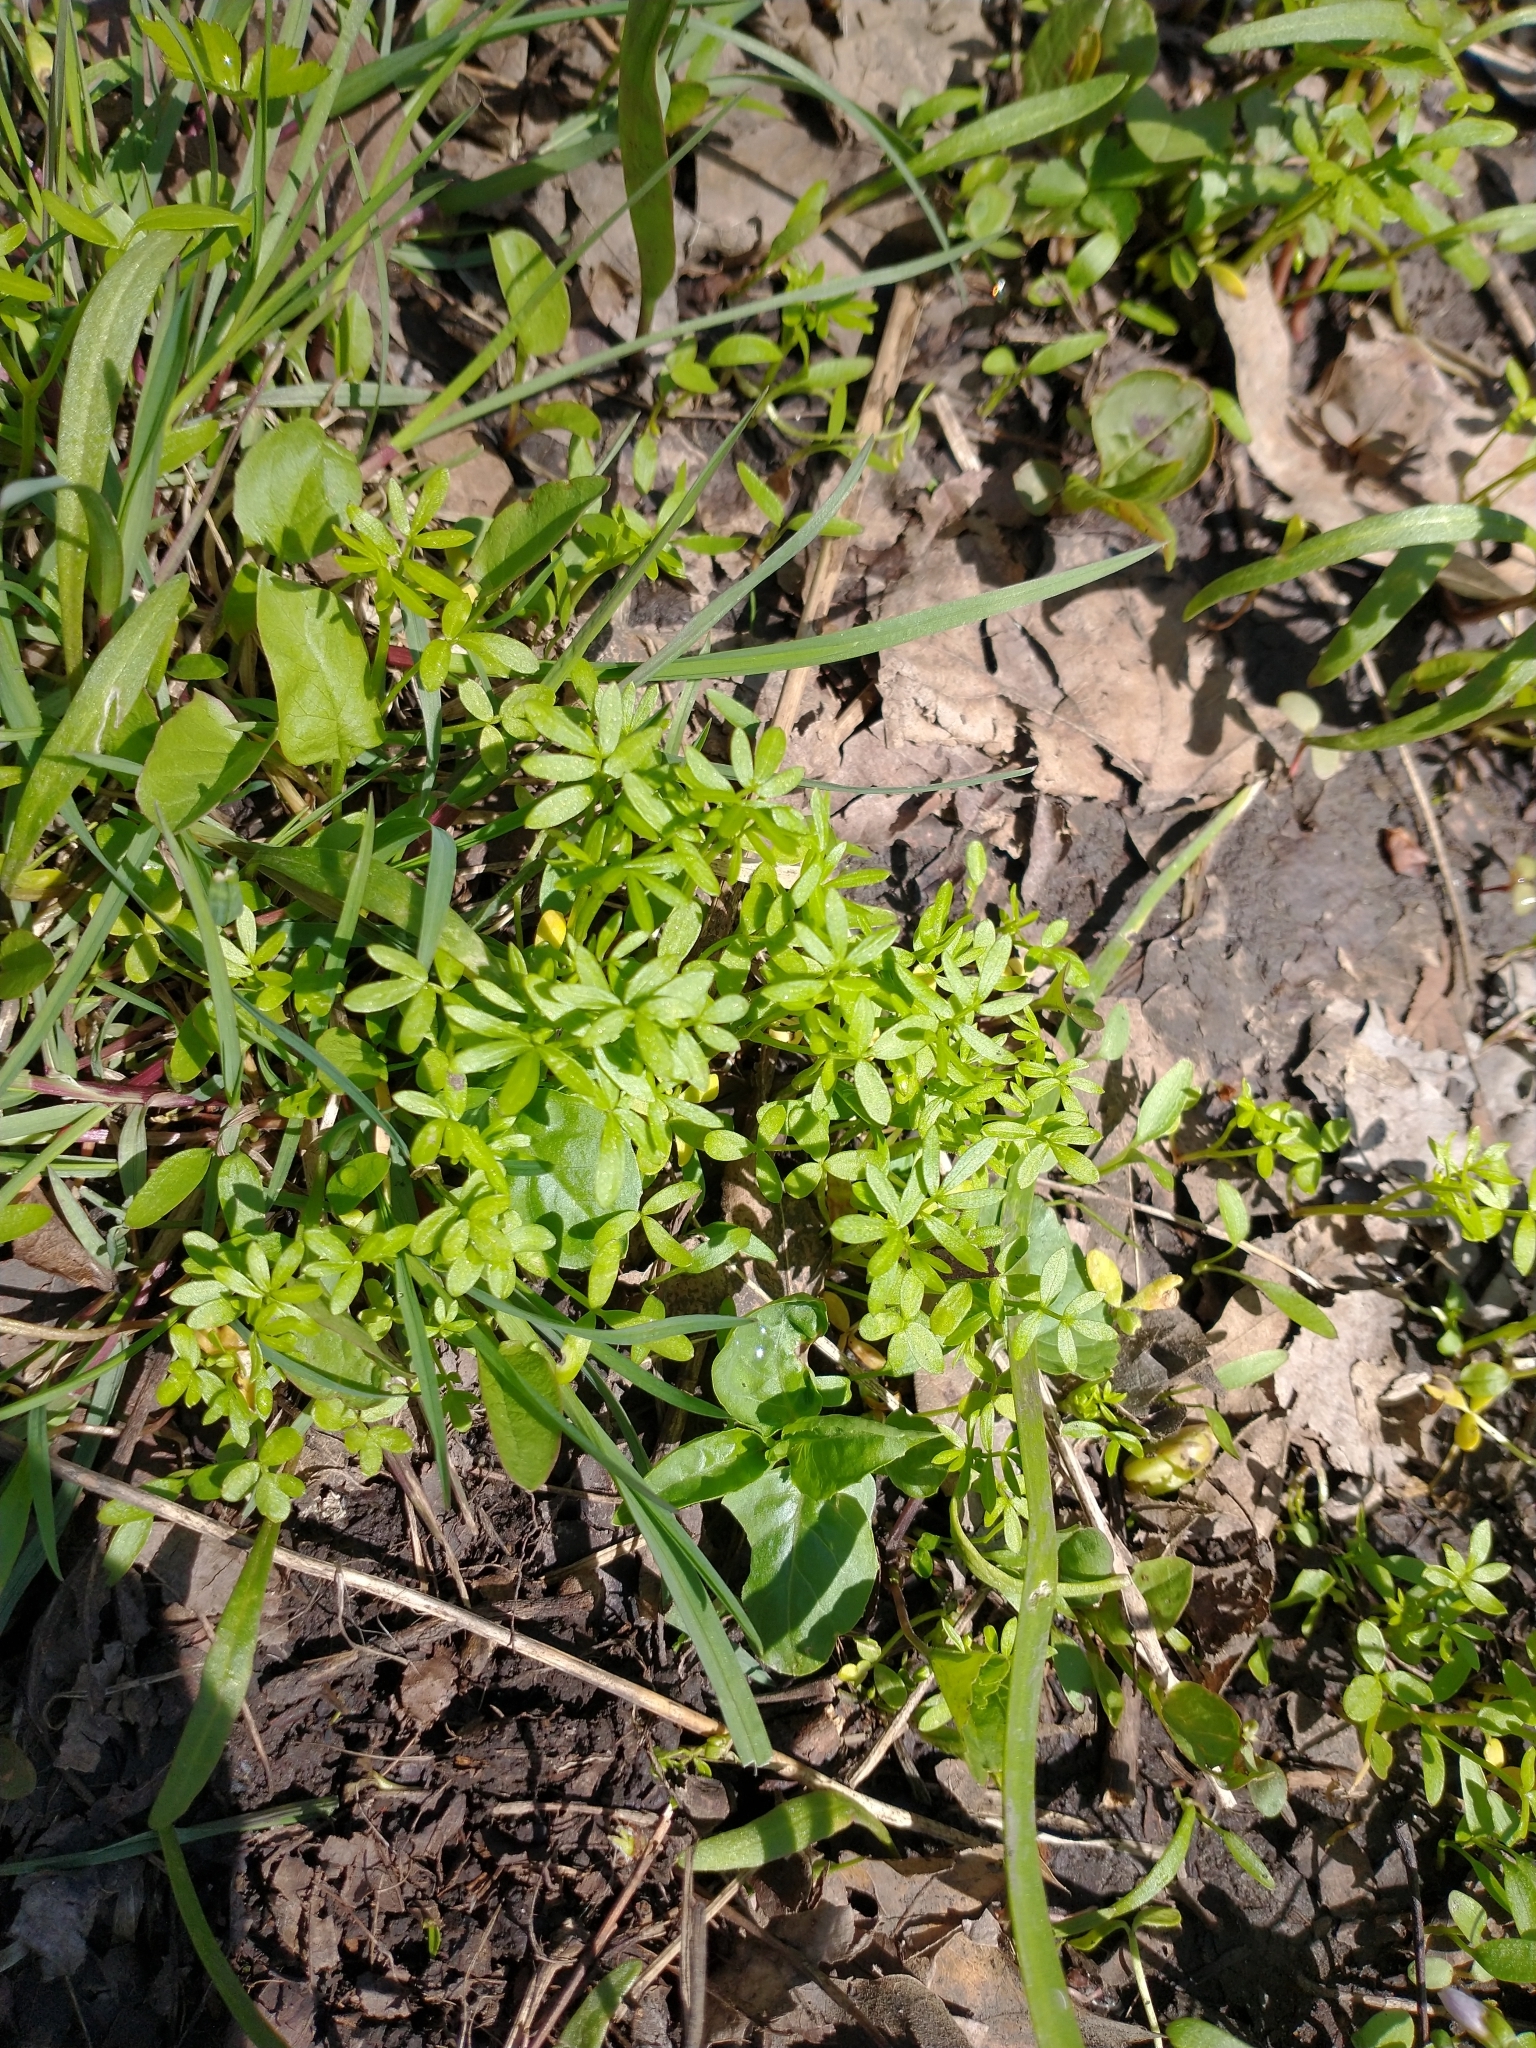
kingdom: Plantae
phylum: Tracheophyta
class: Magnoliopsida
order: Brassicales
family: Limnanthaceae
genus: Floerkea
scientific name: Floerkea proserpinacoides
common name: False mermaid
